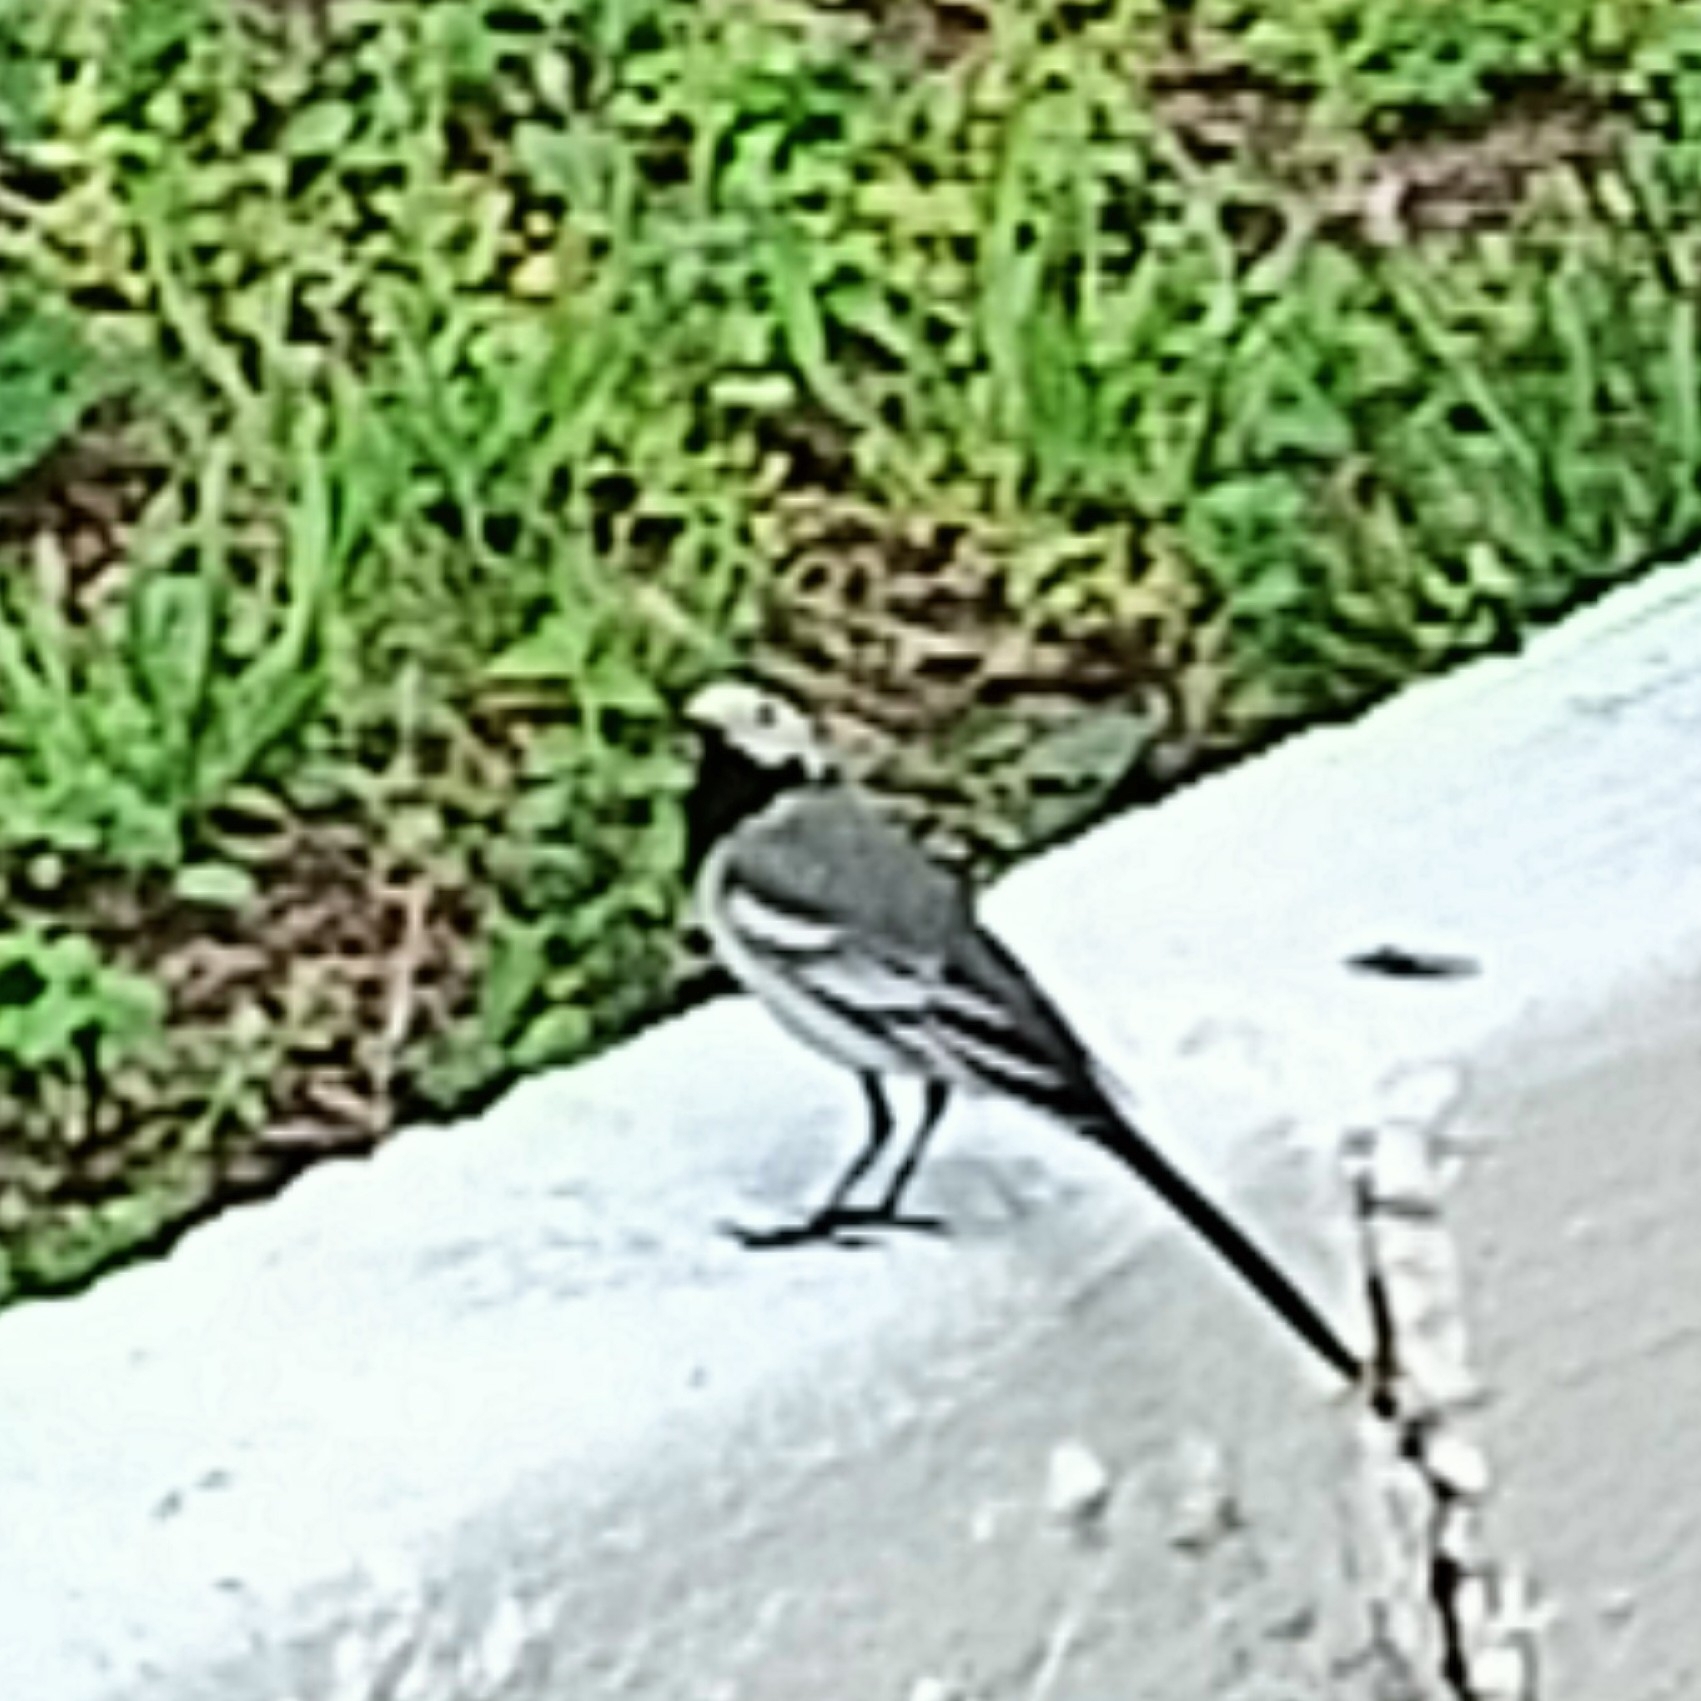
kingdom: Animalia
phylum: Chordata
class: Aves
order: Passeriformes
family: Motacillidae
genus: Motacilla
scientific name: Motacilla alba
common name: White wagtail
